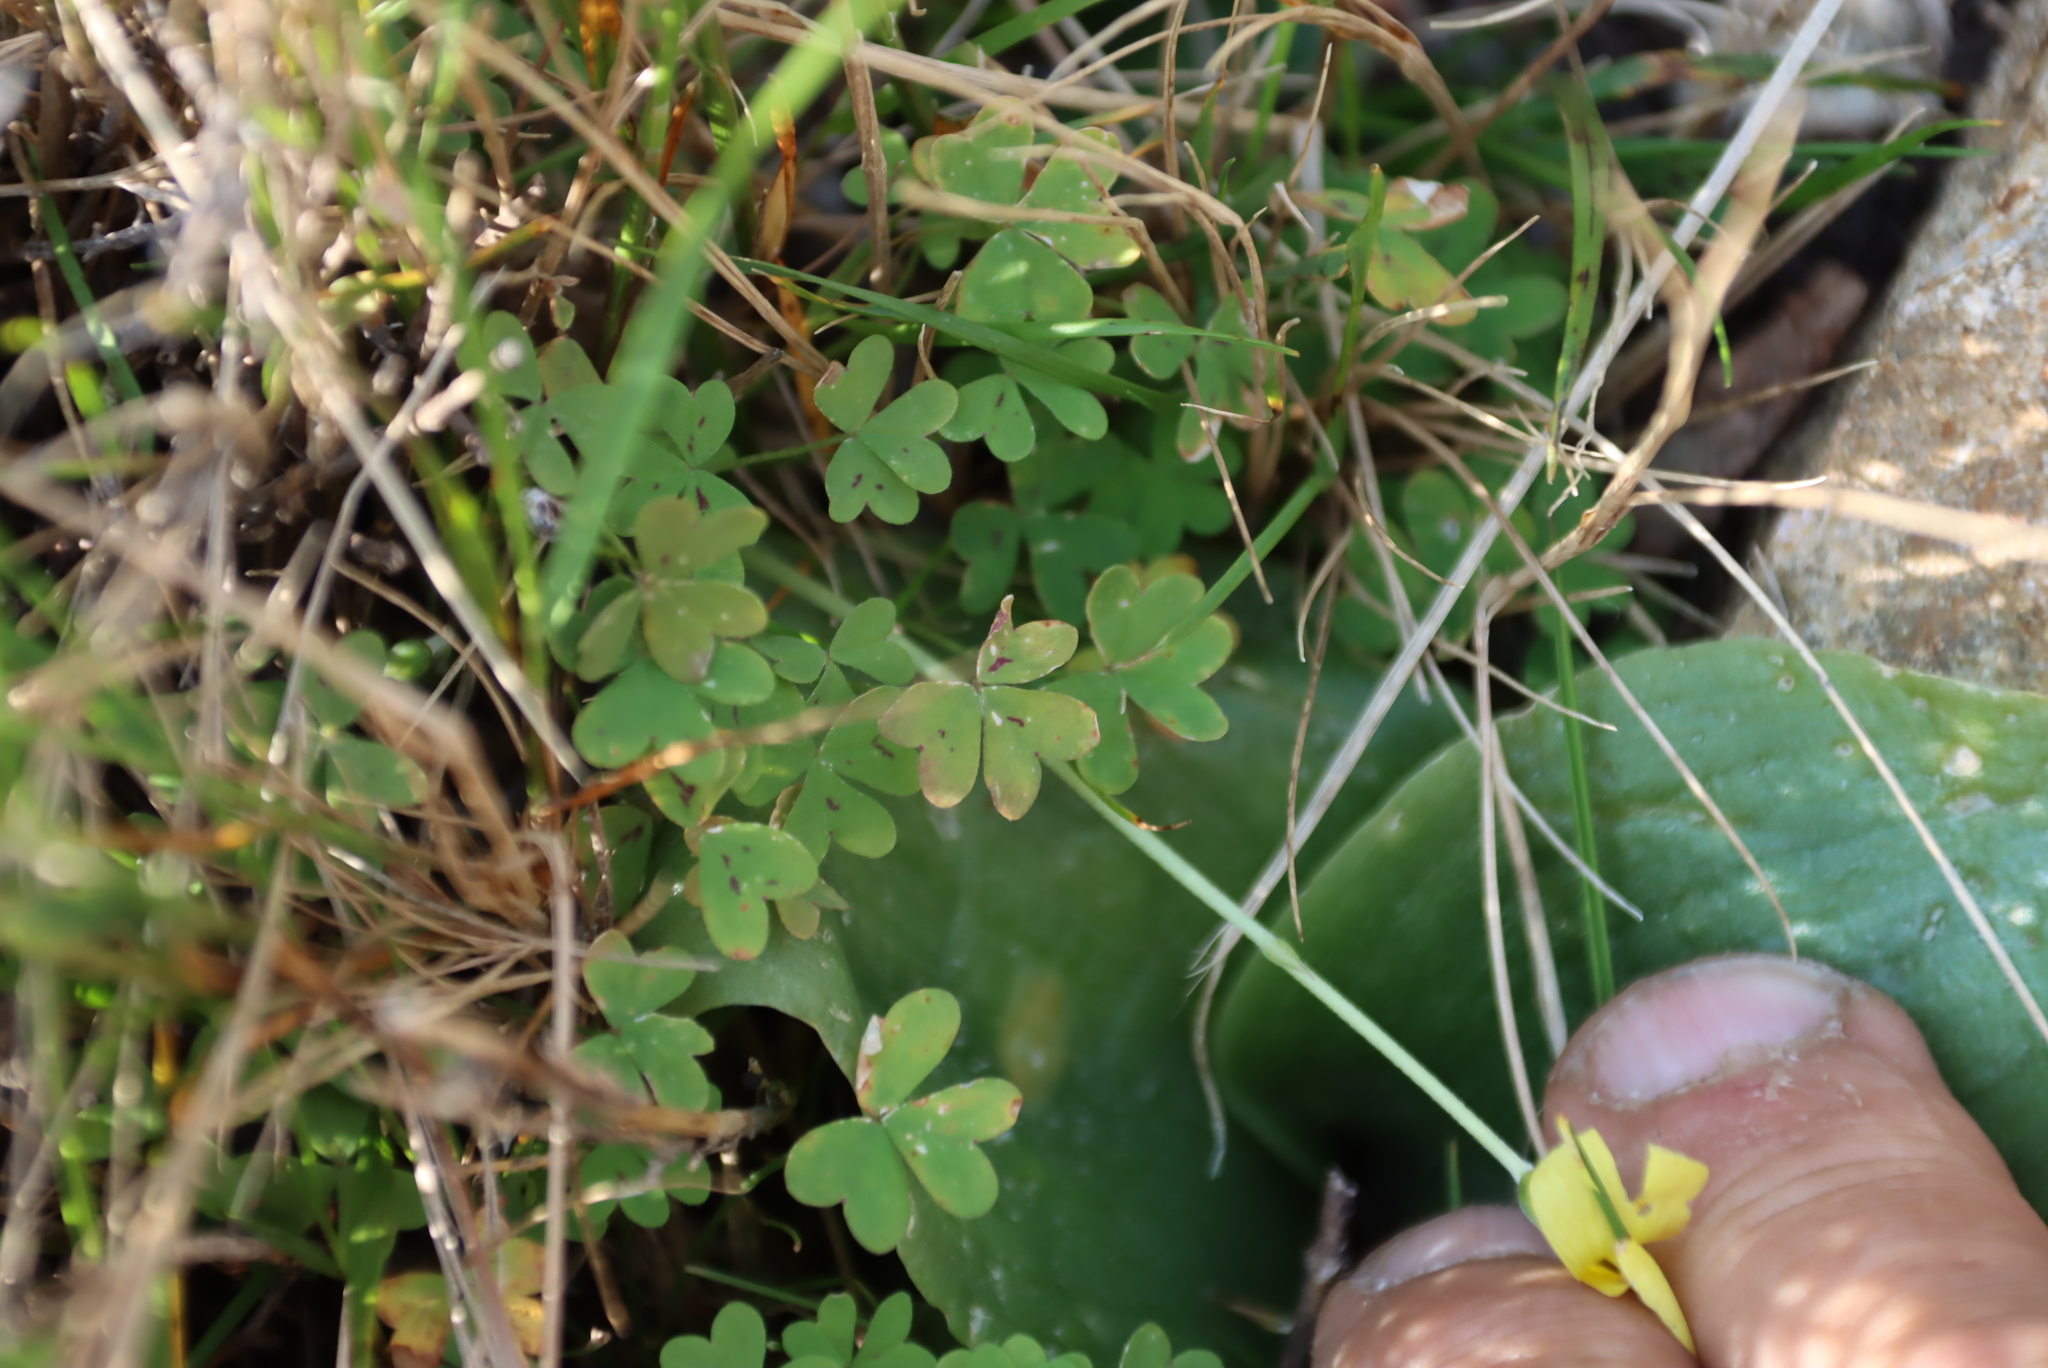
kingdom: Plantae
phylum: Tracheophyta
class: Magnoliopsida
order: Oxalidales
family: Oxalidaceae
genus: Oxalis
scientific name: Oxalis obtusa
